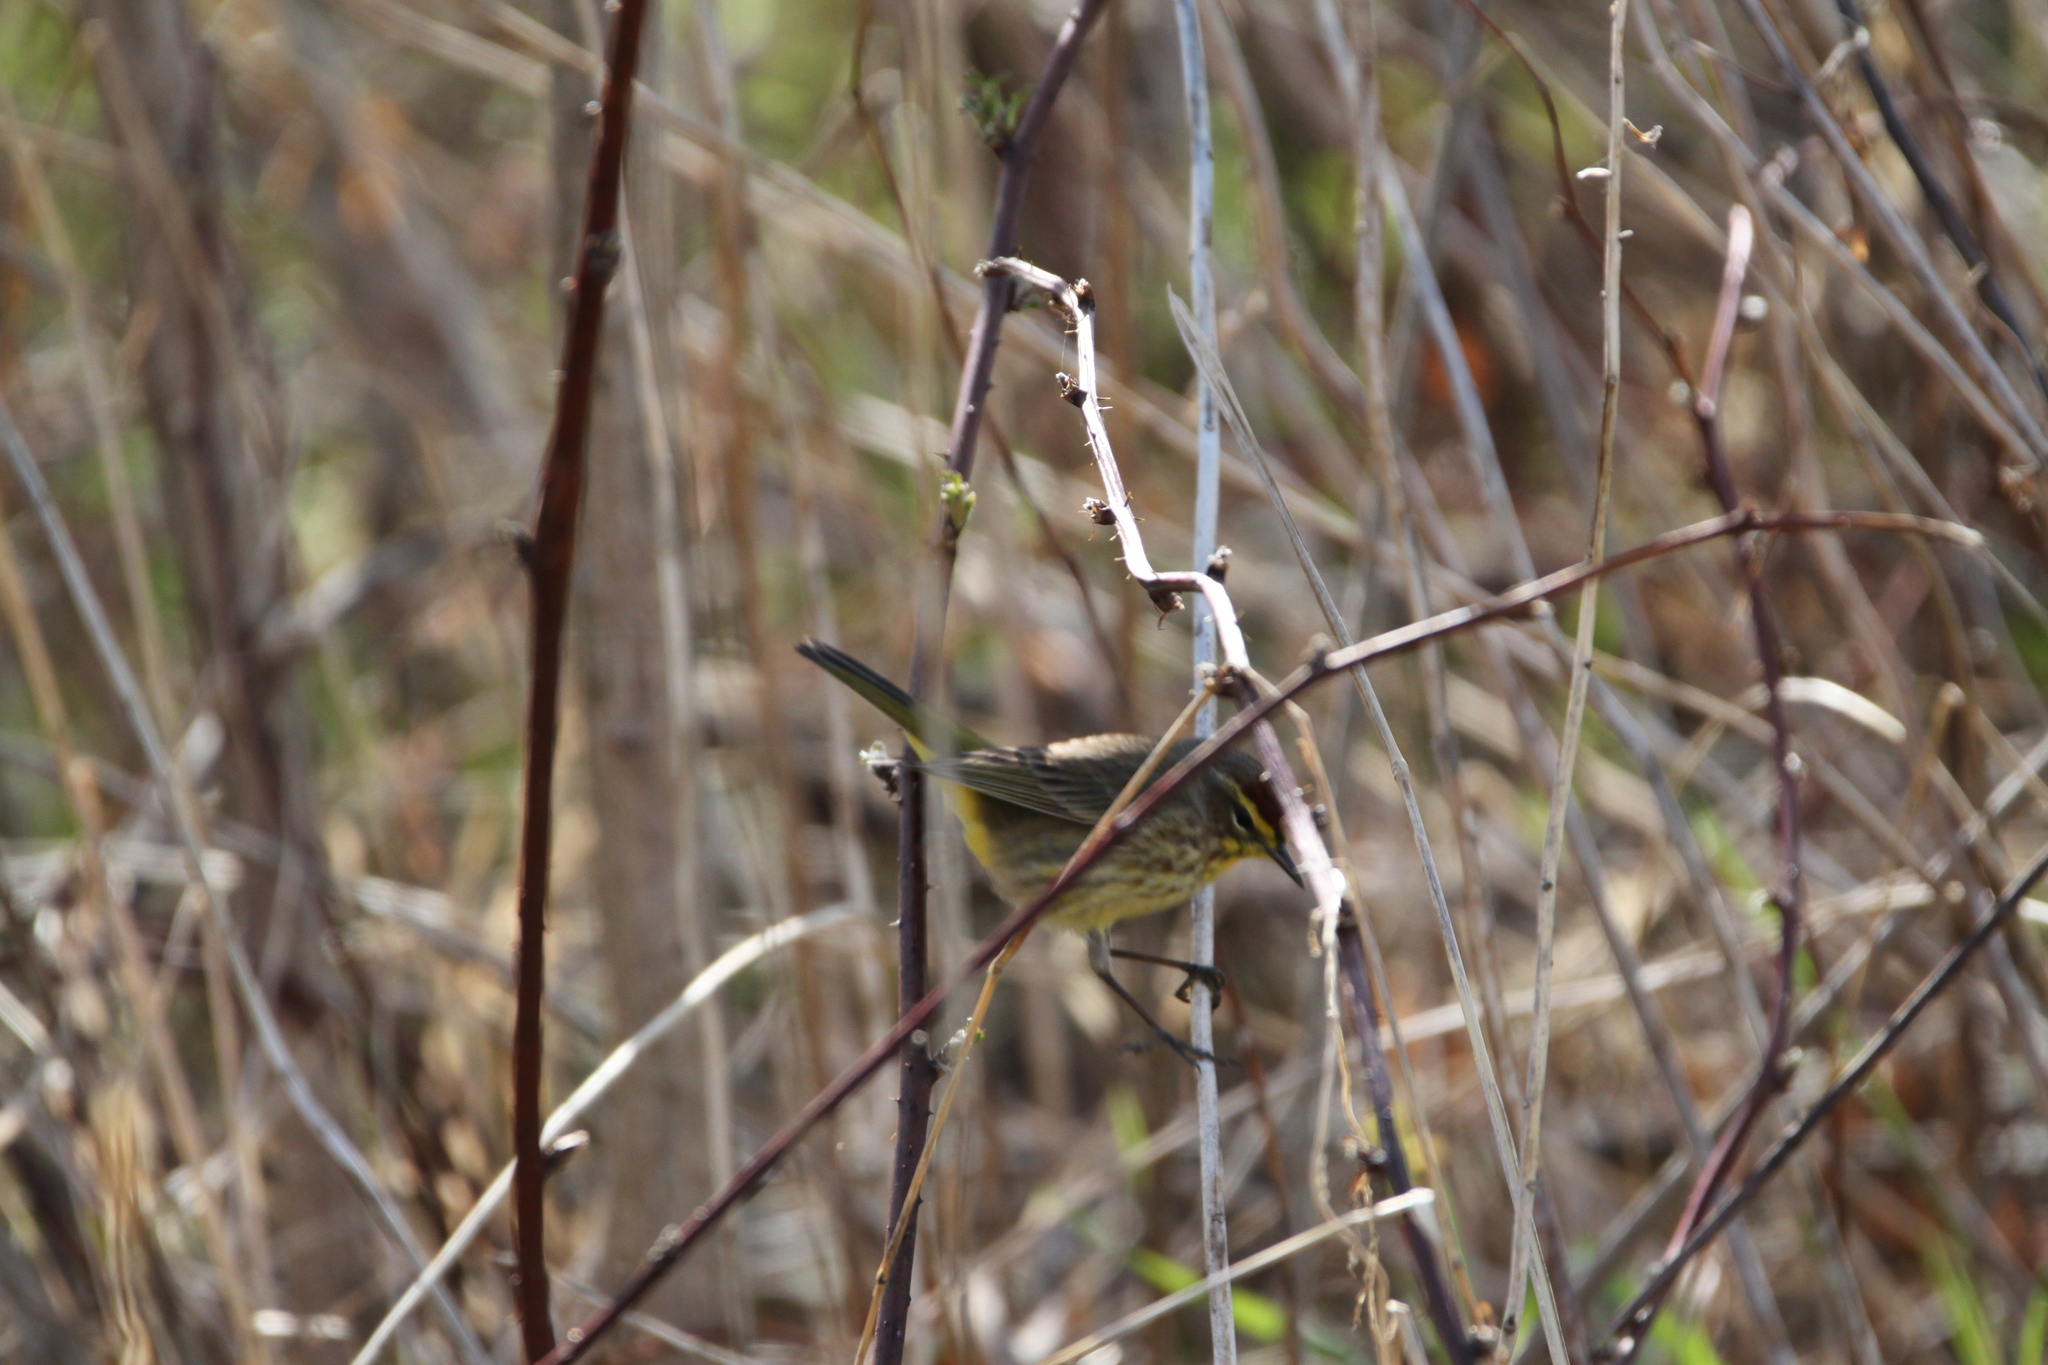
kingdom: Animalia
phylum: Chordata
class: Aves
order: Passeriformes
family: Parulidae
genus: Setophaga
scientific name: Setophaga palmarum
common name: Palm warbler
